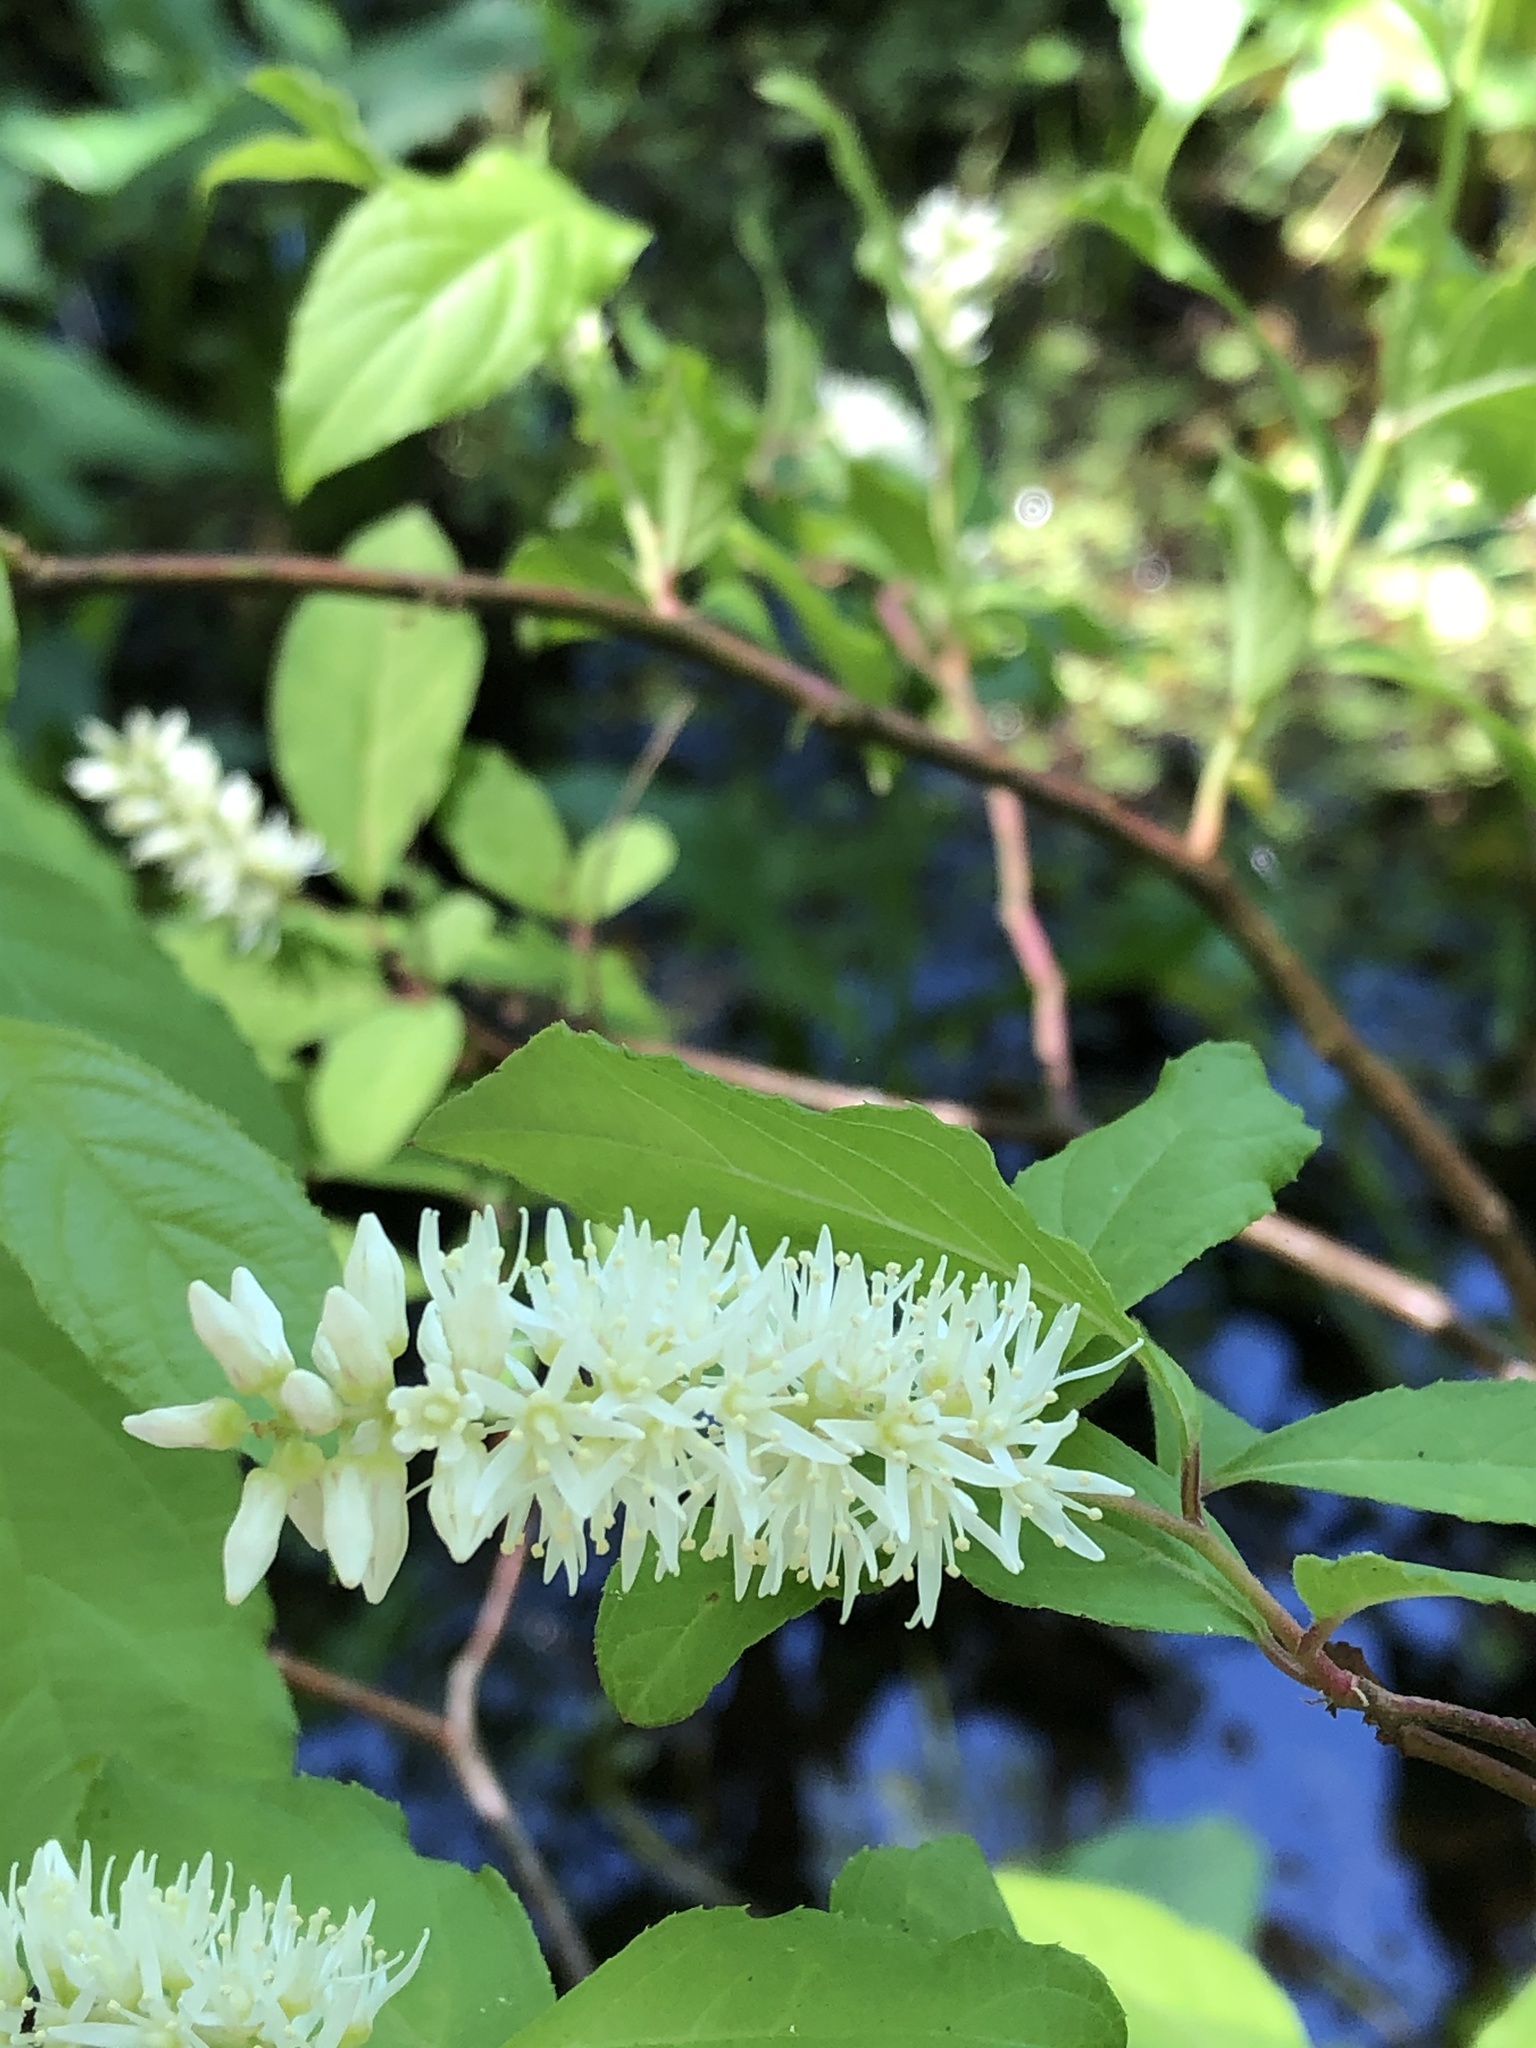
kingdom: Plantae
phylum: Tracheophyta
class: Magnoliopsida
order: Saxifragales
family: Iteaceae
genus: Itea
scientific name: Itea virginica
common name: Sweetspire
